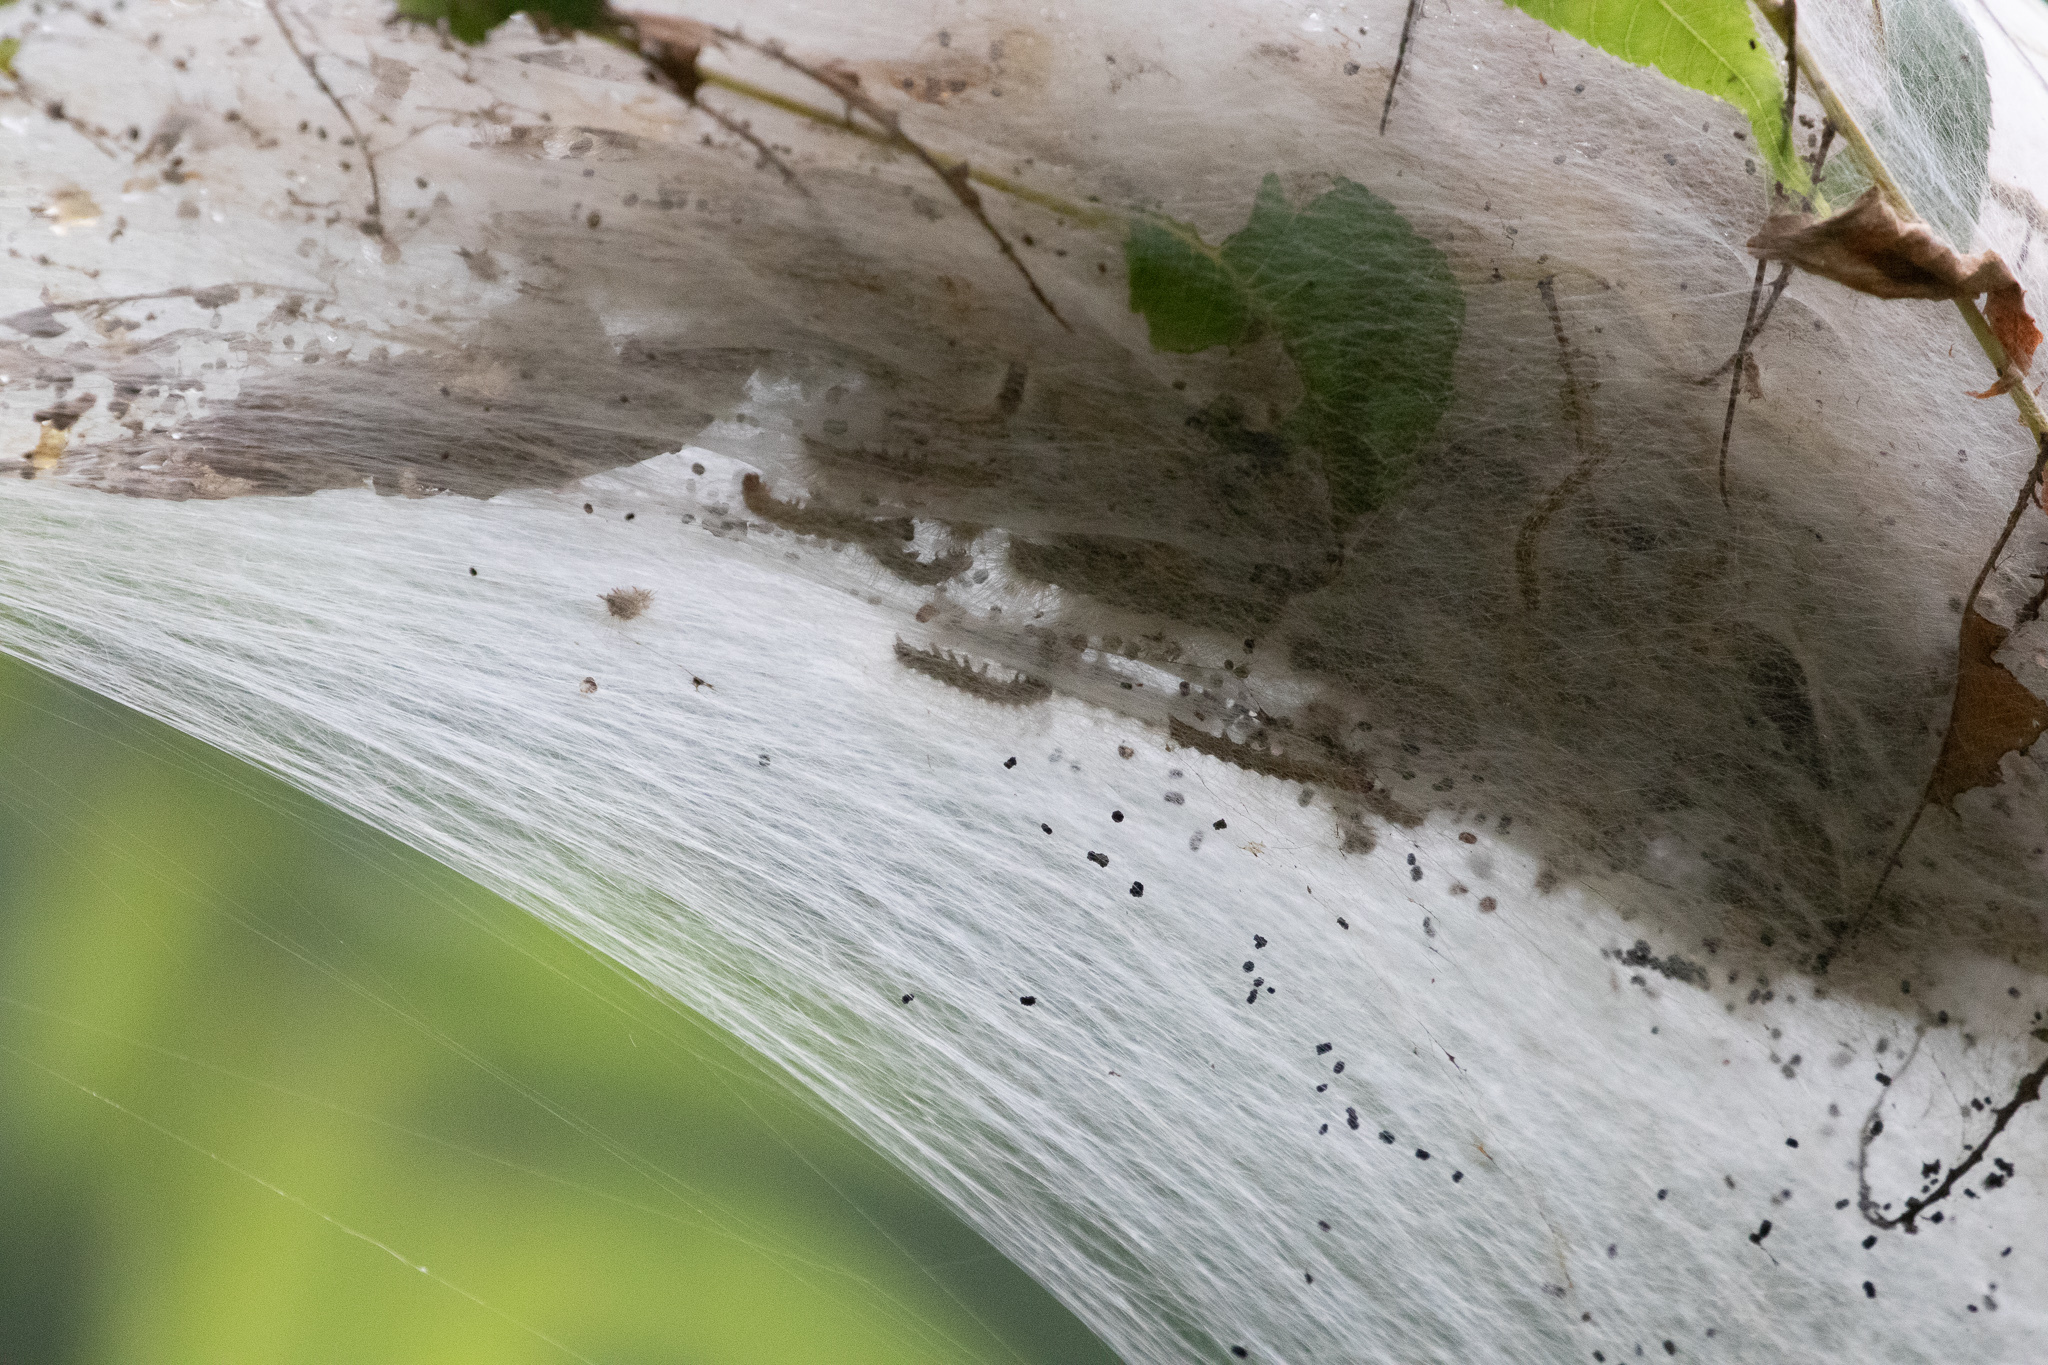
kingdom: Animalia
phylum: Arthropoda
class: Insecta
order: Lepidoptera
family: Erebidae
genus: Hyphantria
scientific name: Hyphantria cunea
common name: American white moth
